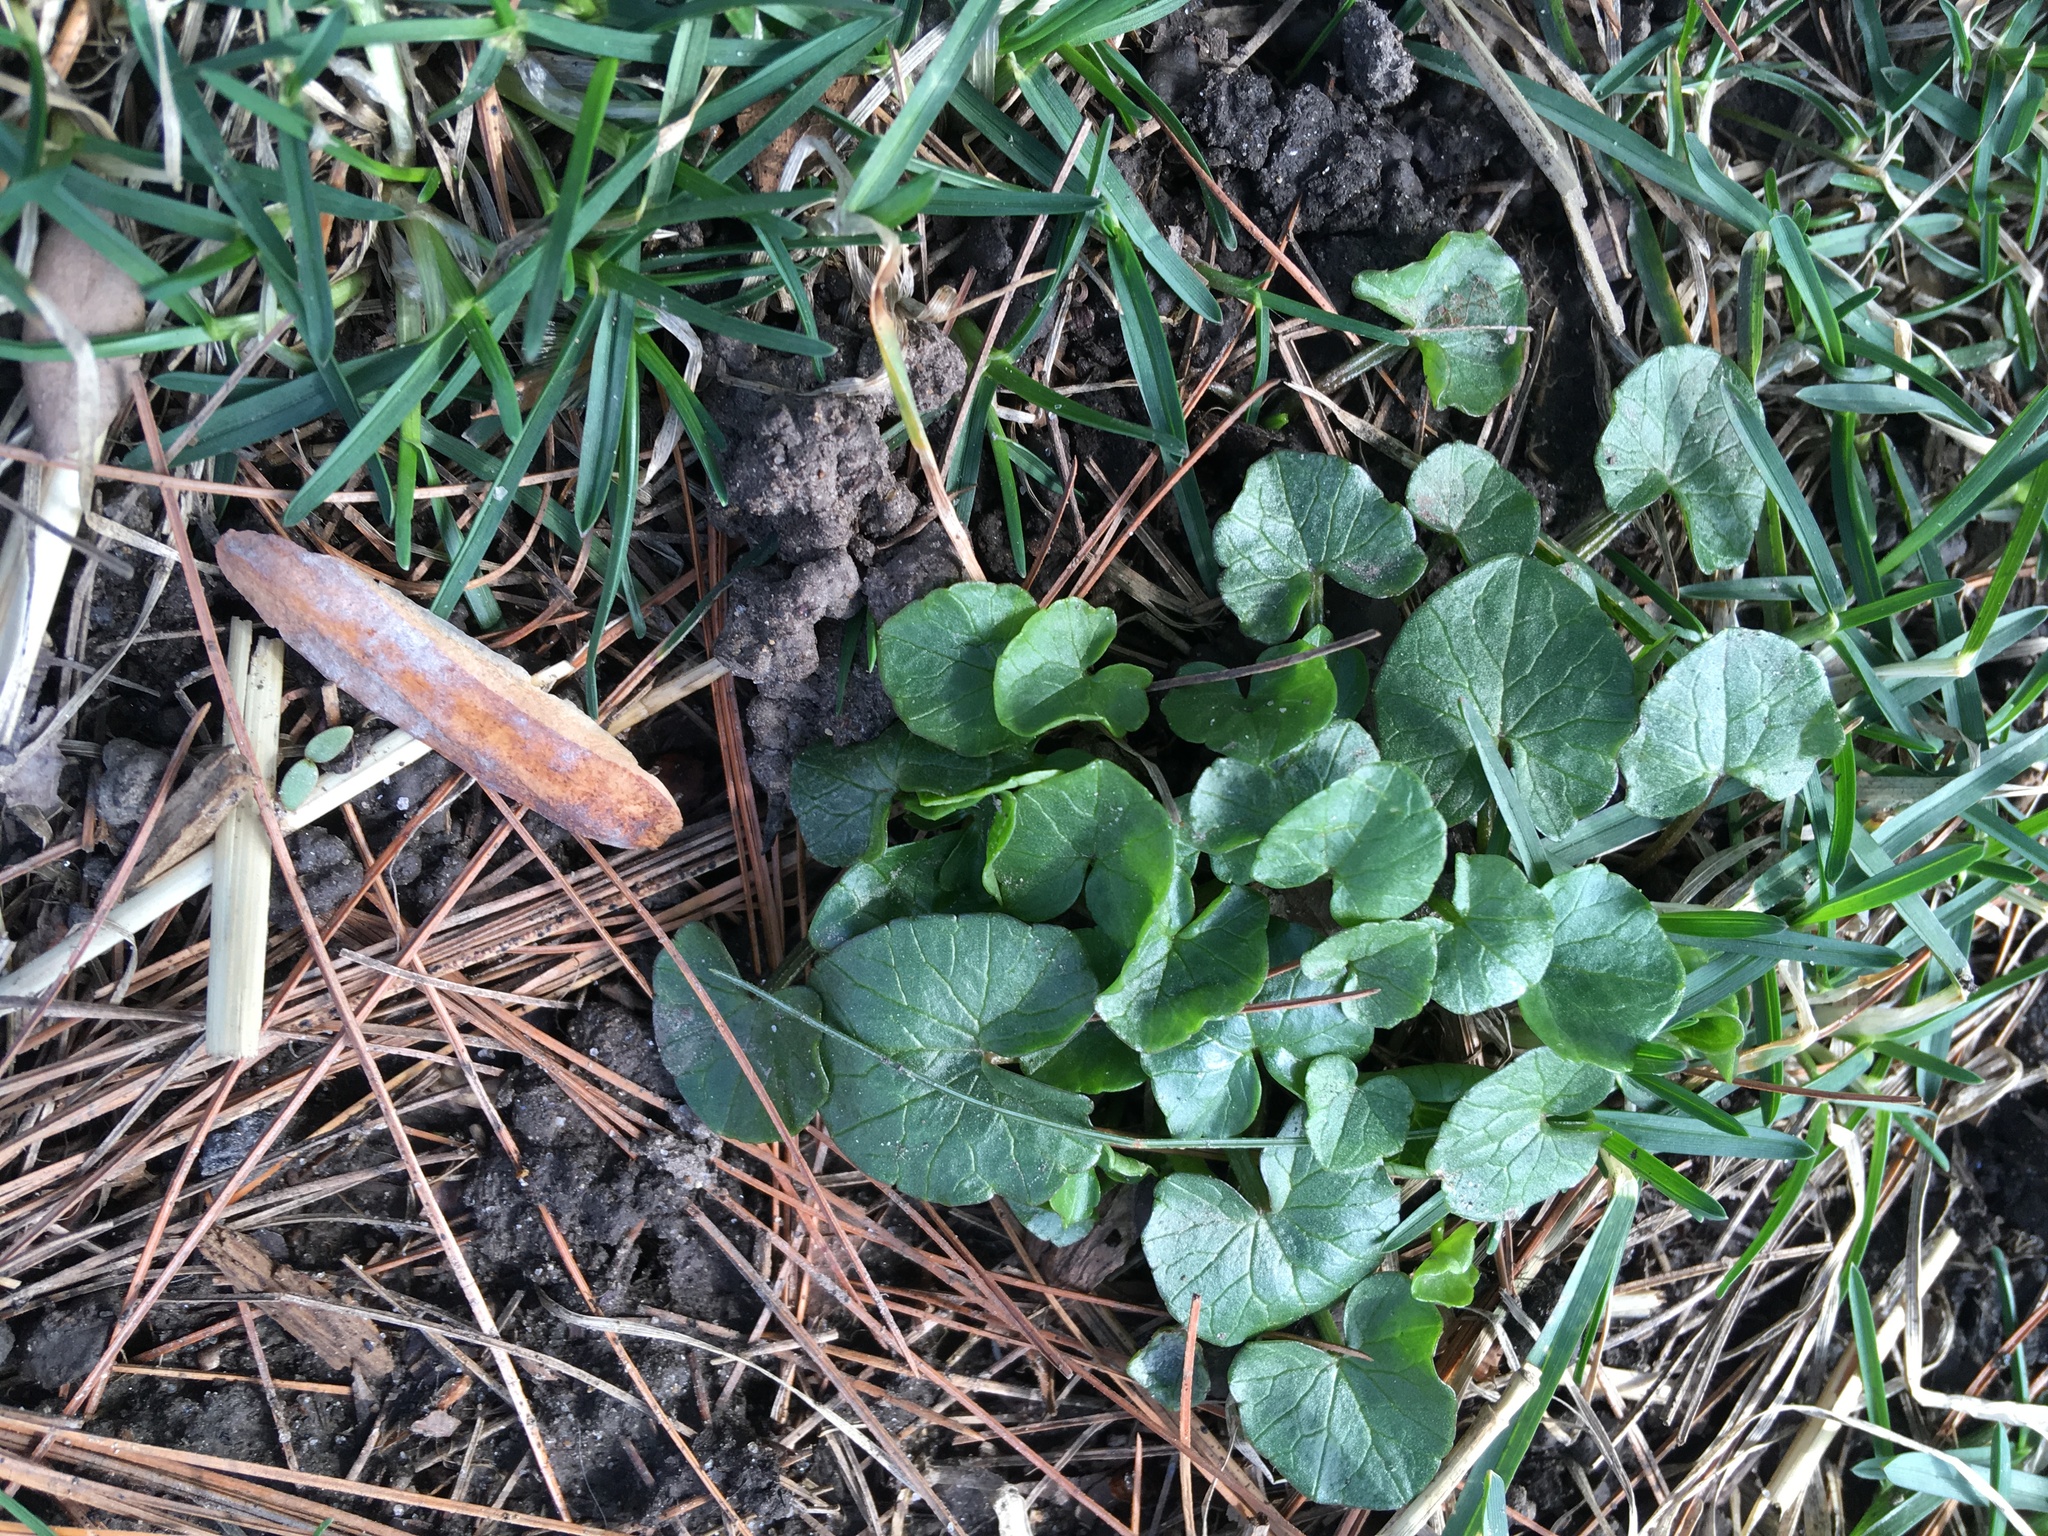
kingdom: Plantae
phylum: Tracheophyta
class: Magnoliopsida
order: Ranunculales
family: Ranunculaceae
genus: Ficaria
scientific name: Ficaria verna
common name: Lesser celandine
